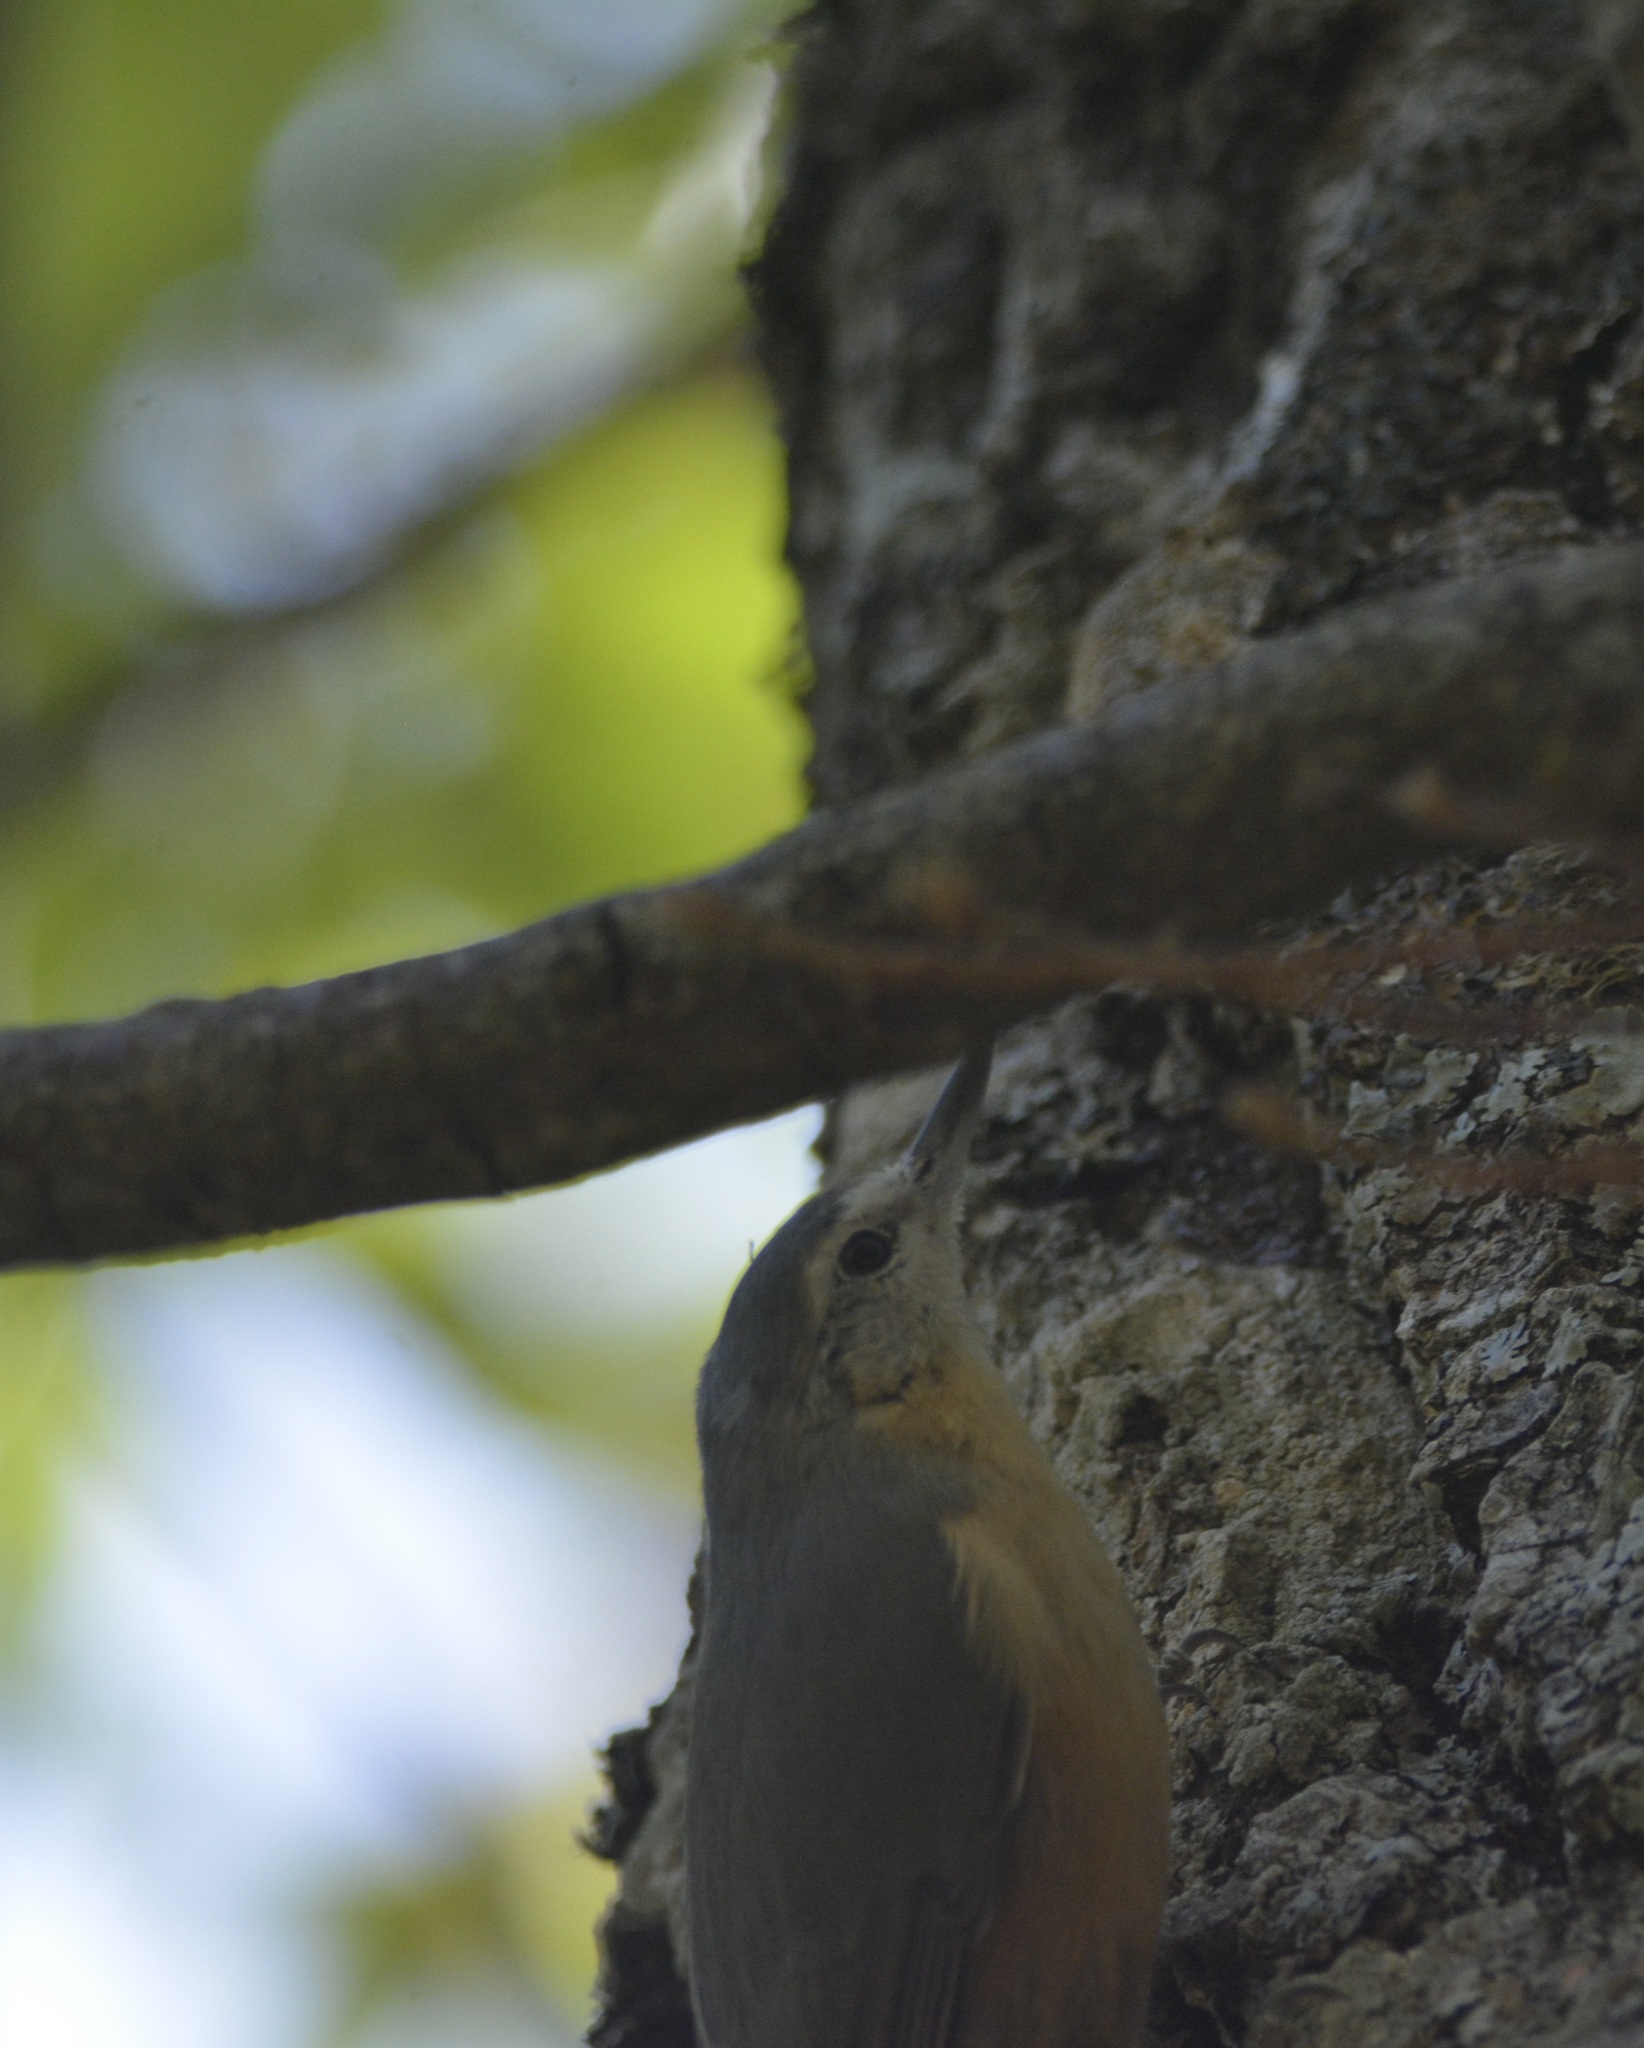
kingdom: Animalia
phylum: Chordata
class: Aves
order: Passeriformes
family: Sittidae
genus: Sitta
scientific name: Sitta ledanti
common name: Algerian nuthatch
